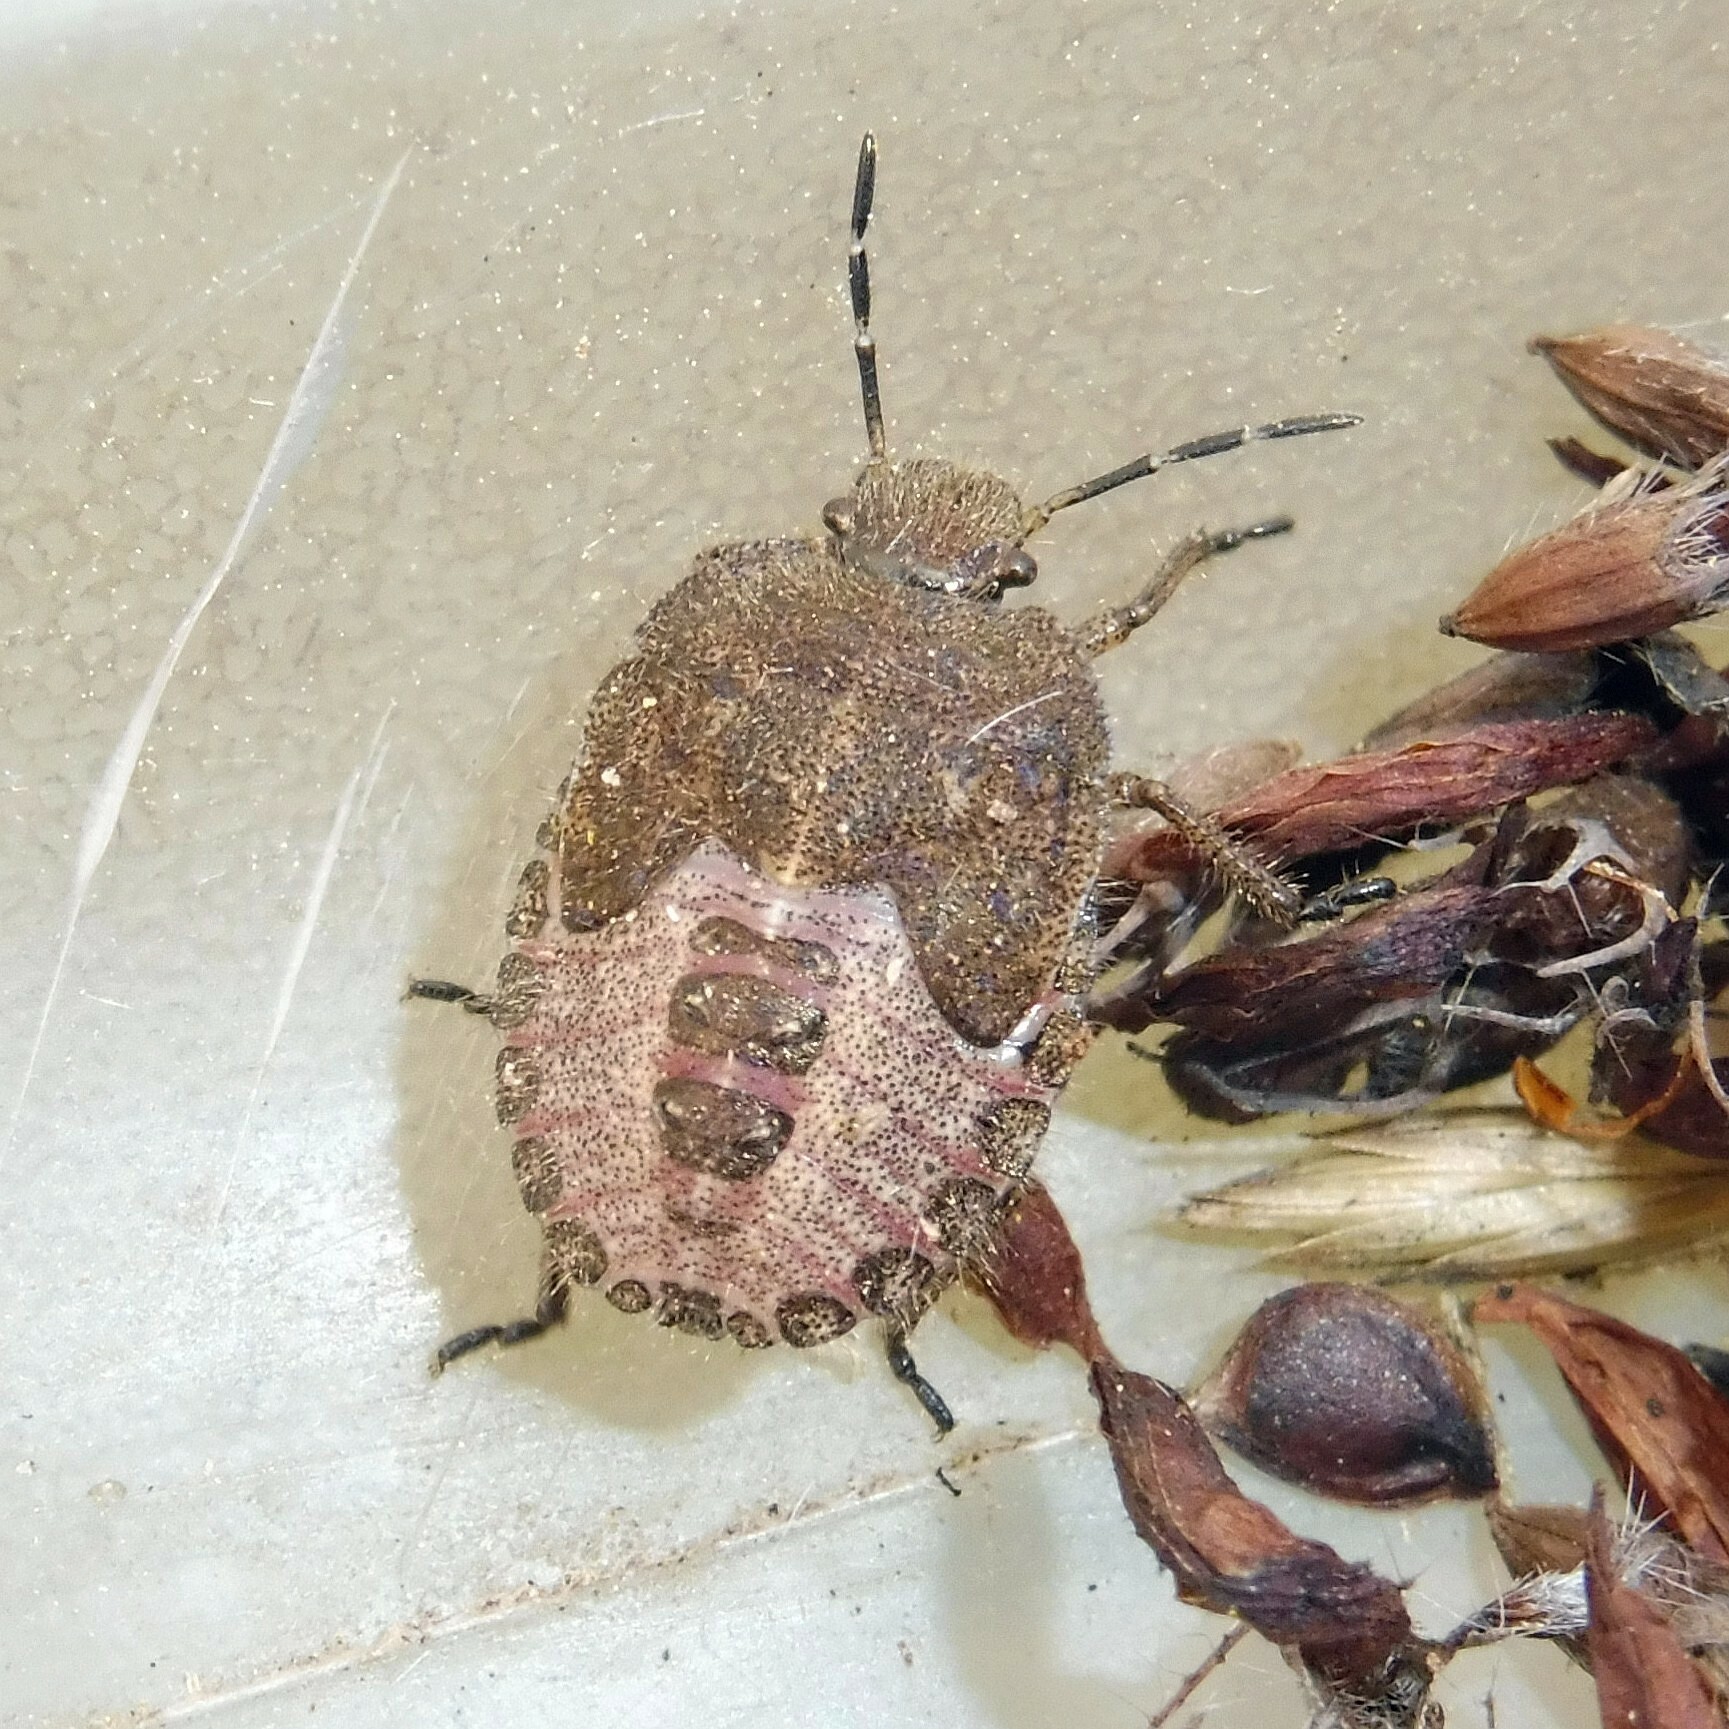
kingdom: Animalia
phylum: Arthropoda
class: Insecta
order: Hemiptera
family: Pentatomidae
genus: Dolycoris
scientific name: Dolycoris baccarum
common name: Sloe bug
